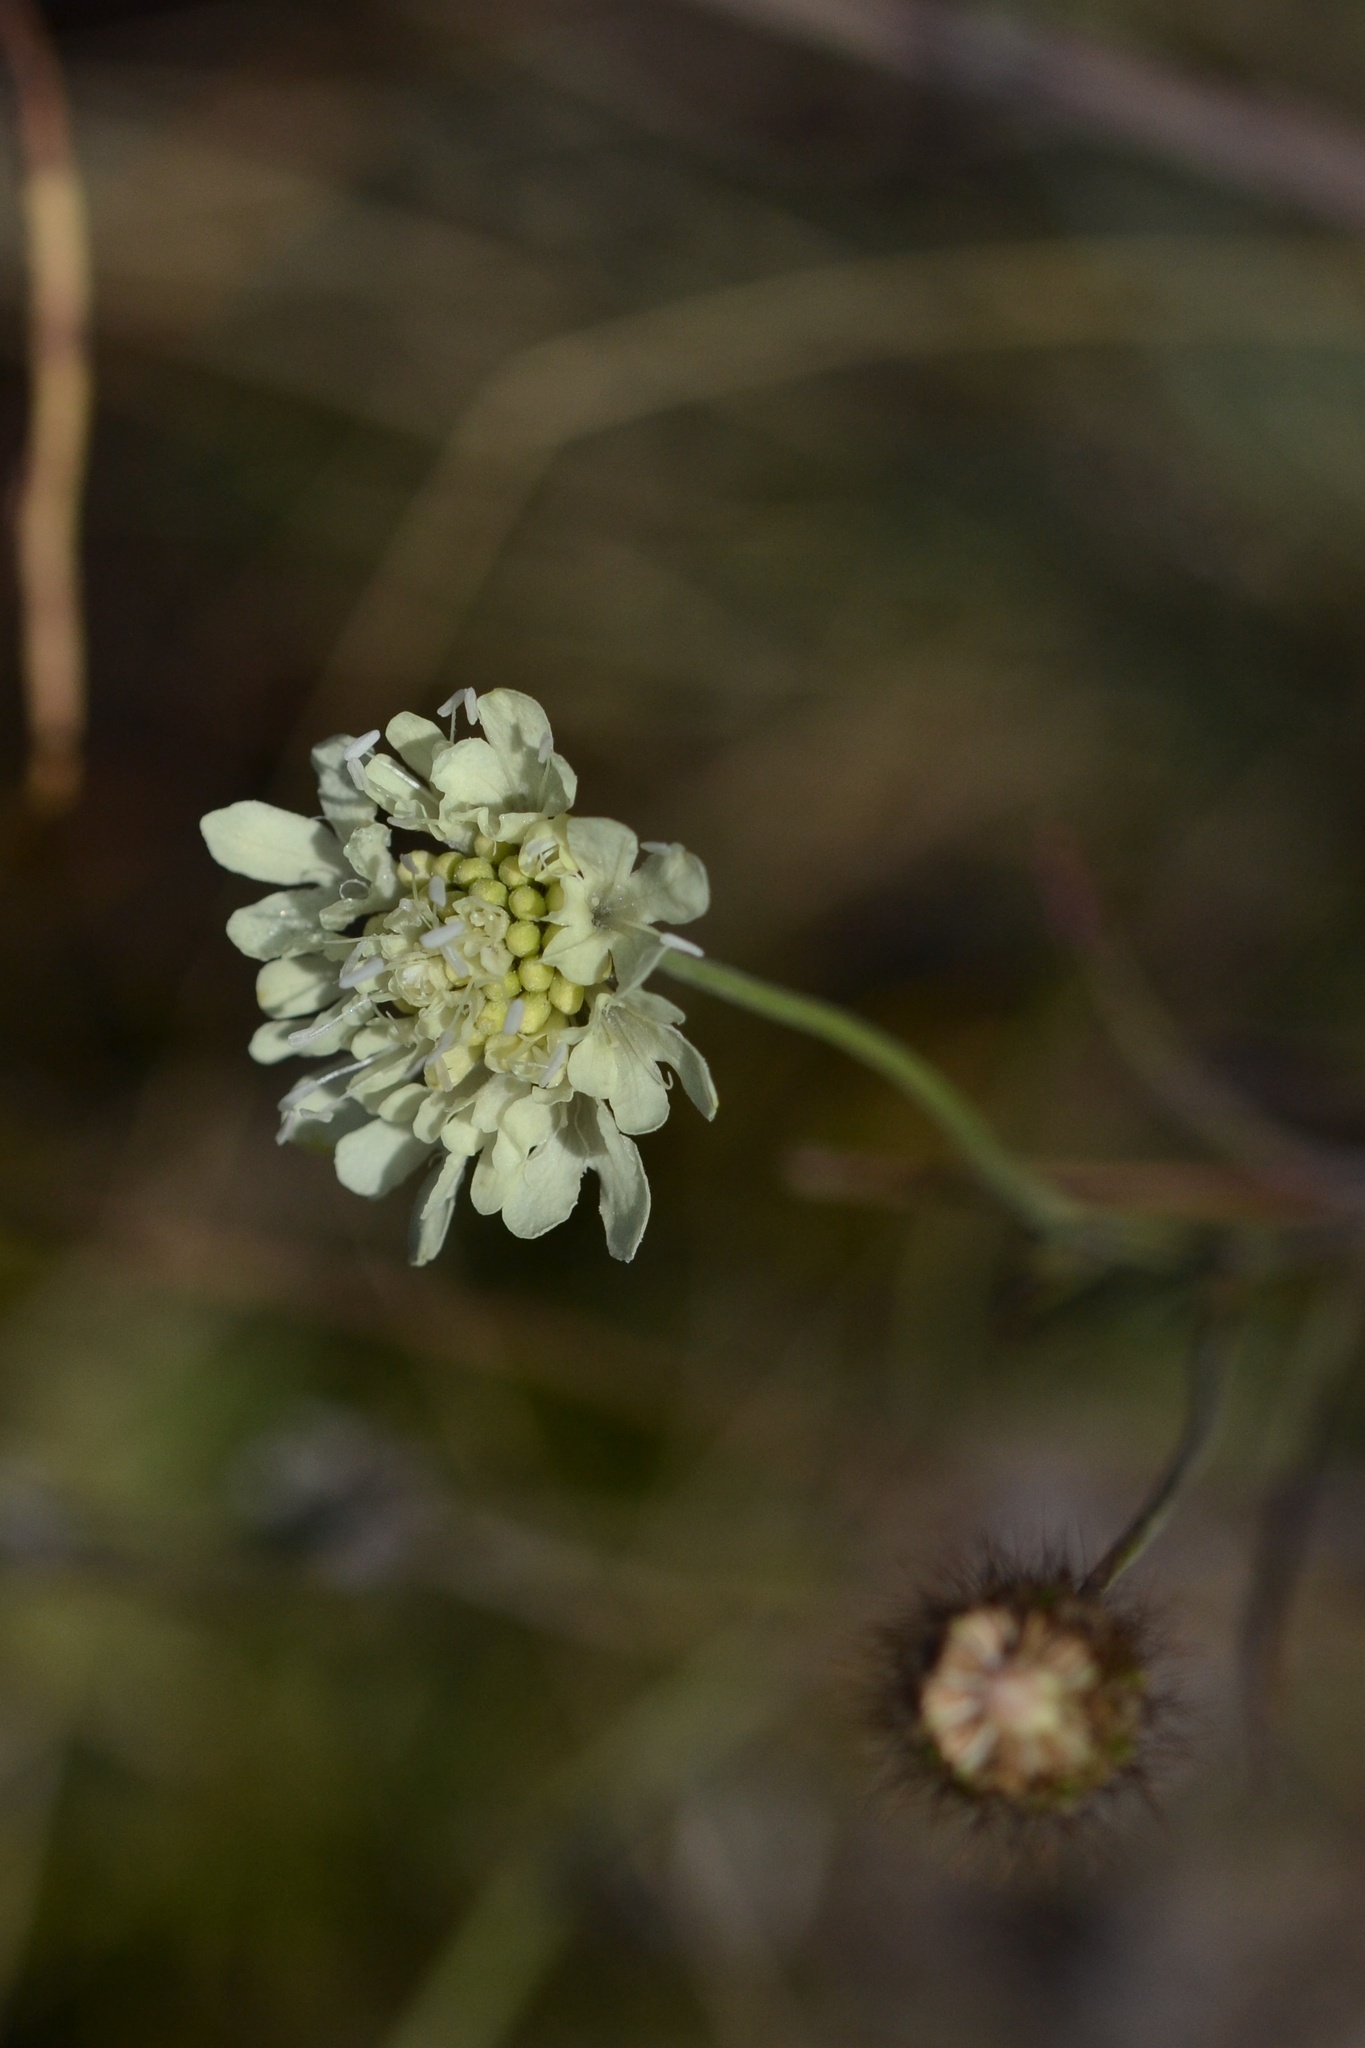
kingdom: Plantae
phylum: Tracheophyta
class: Magnoliopsida
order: Dipsacales
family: Caprifoliaceae
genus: Scabiosa
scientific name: Scabiosa ochroleuca
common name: Cream pincushions
